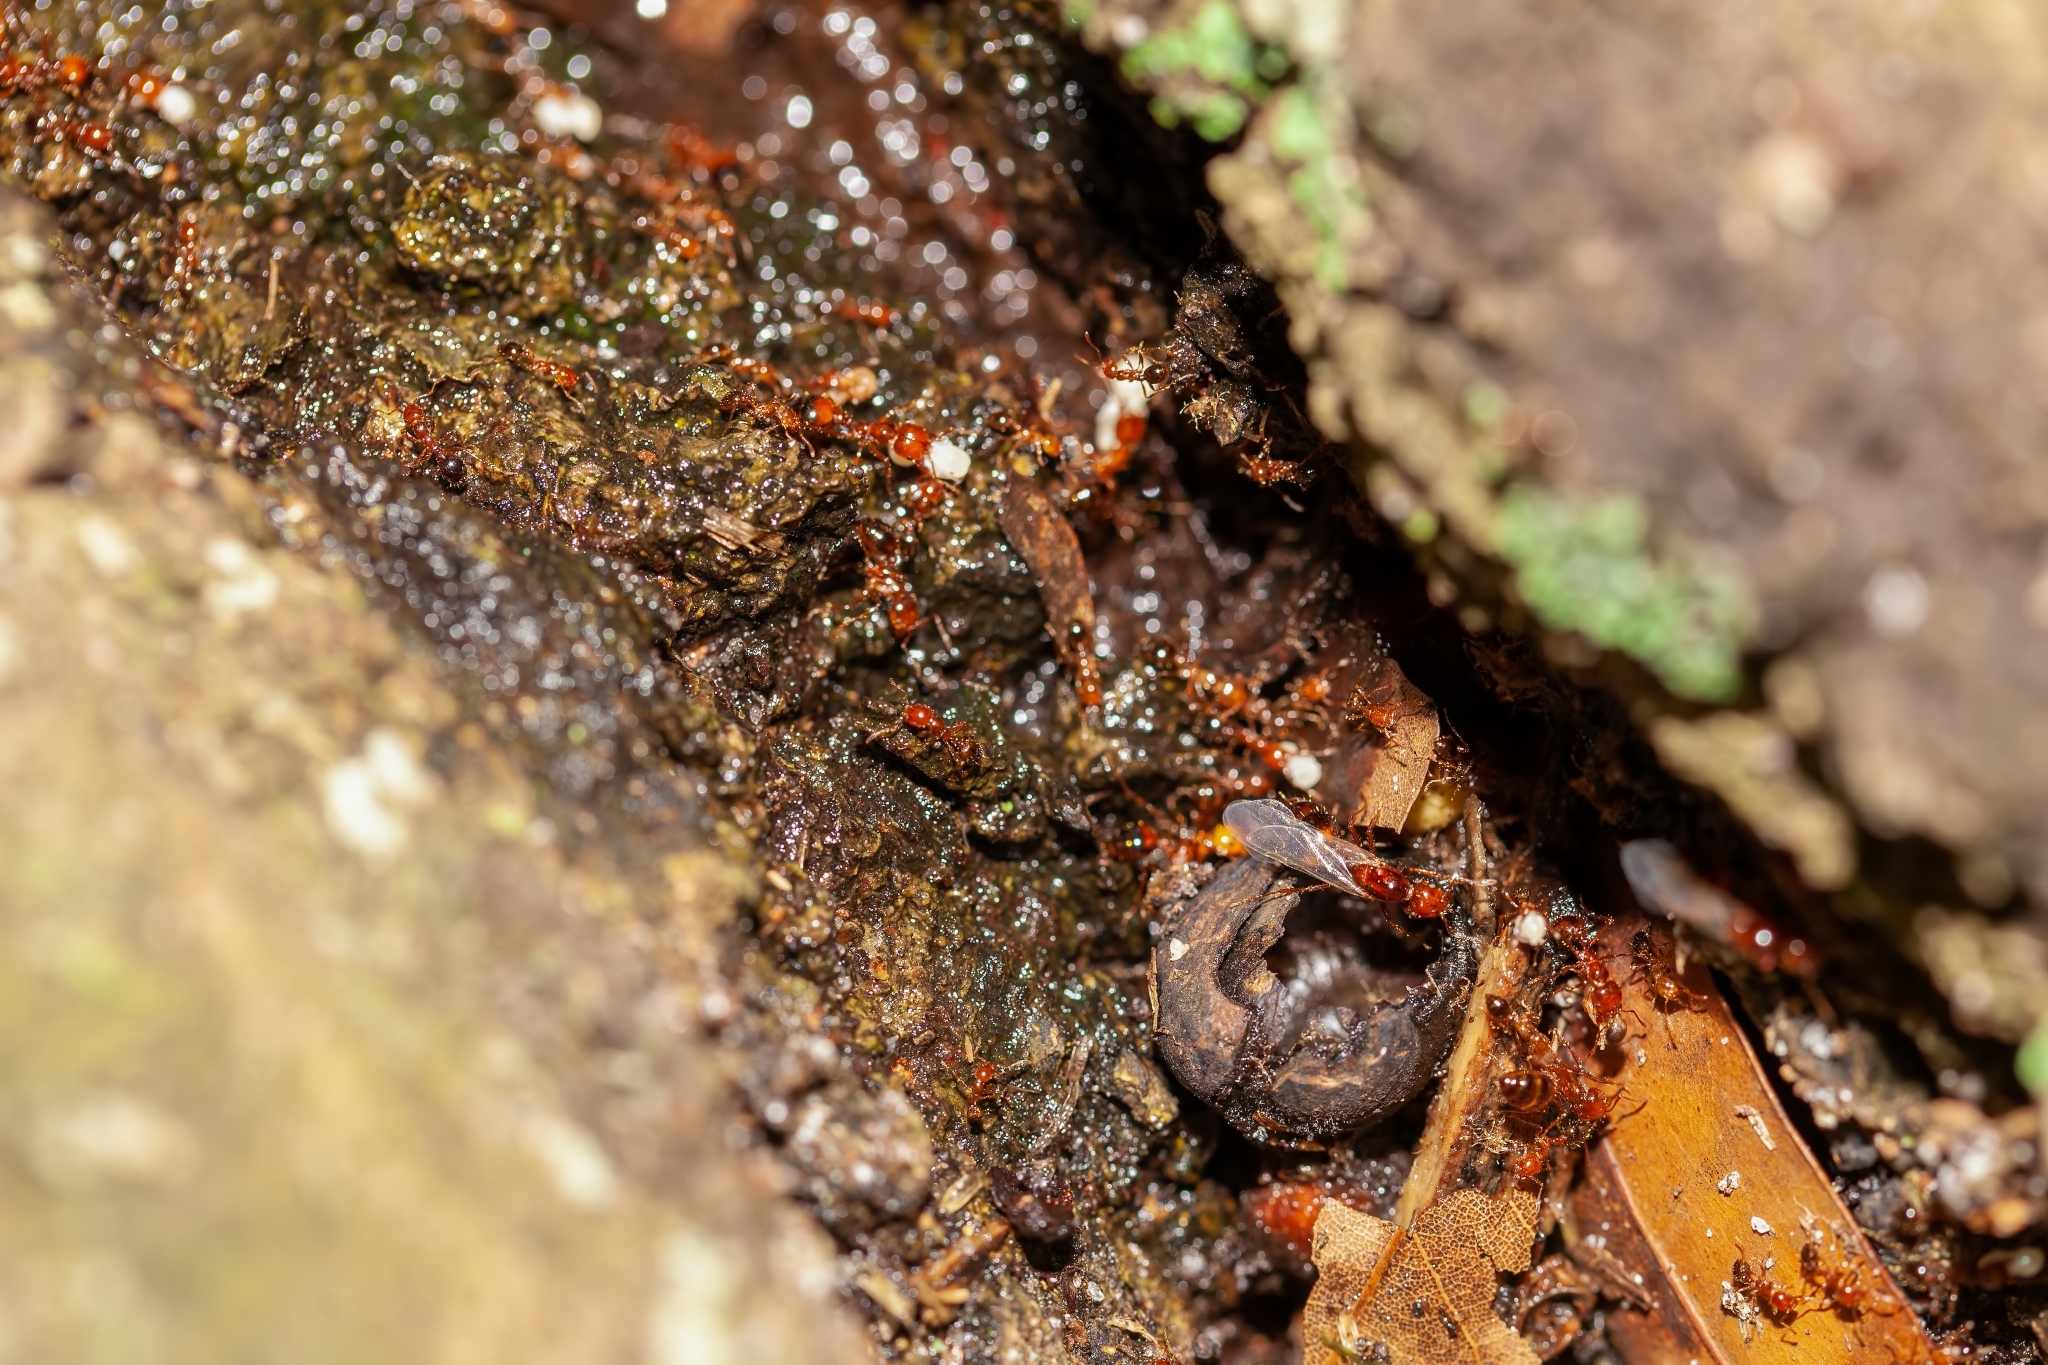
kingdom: Animalia
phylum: Arthropoda
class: Insecta
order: Hymenoptera
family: Formicidae
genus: Solenopsis
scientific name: Solenopsis invicta
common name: Red imported fire ant
